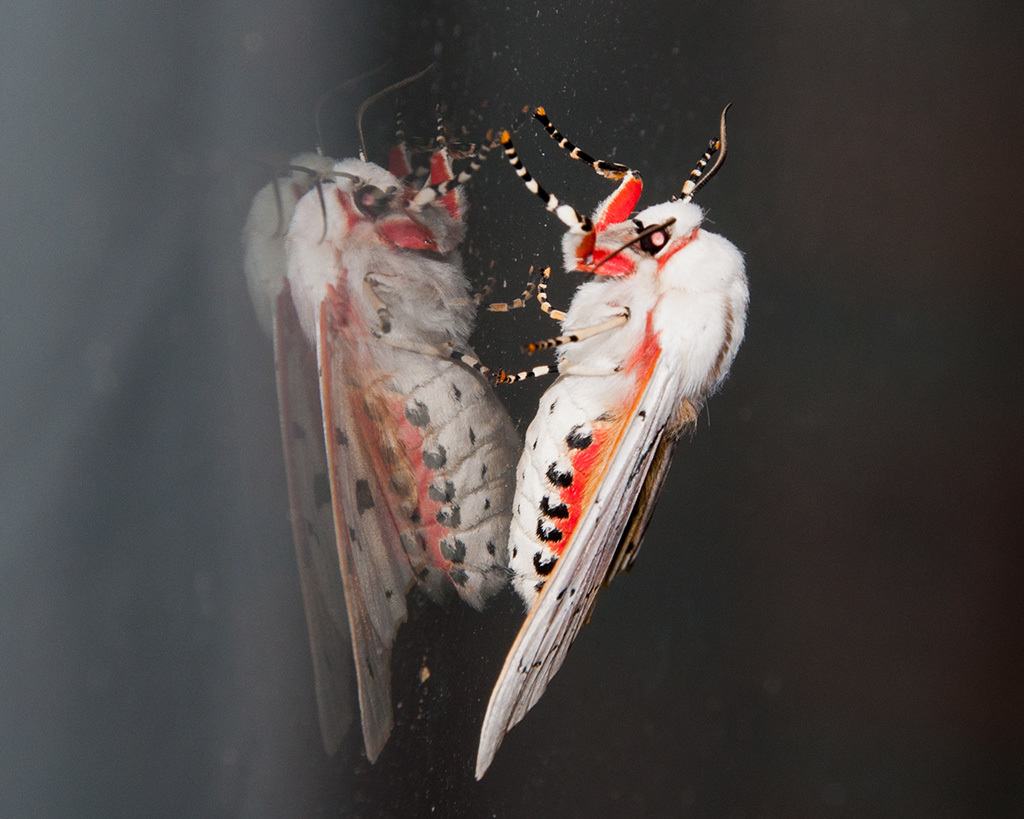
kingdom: Animalia
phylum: Arthropoda
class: Insecta
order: Lepidoptera
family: Erebidae
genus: Rhodogastria
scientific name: Rhodogastria amasis
